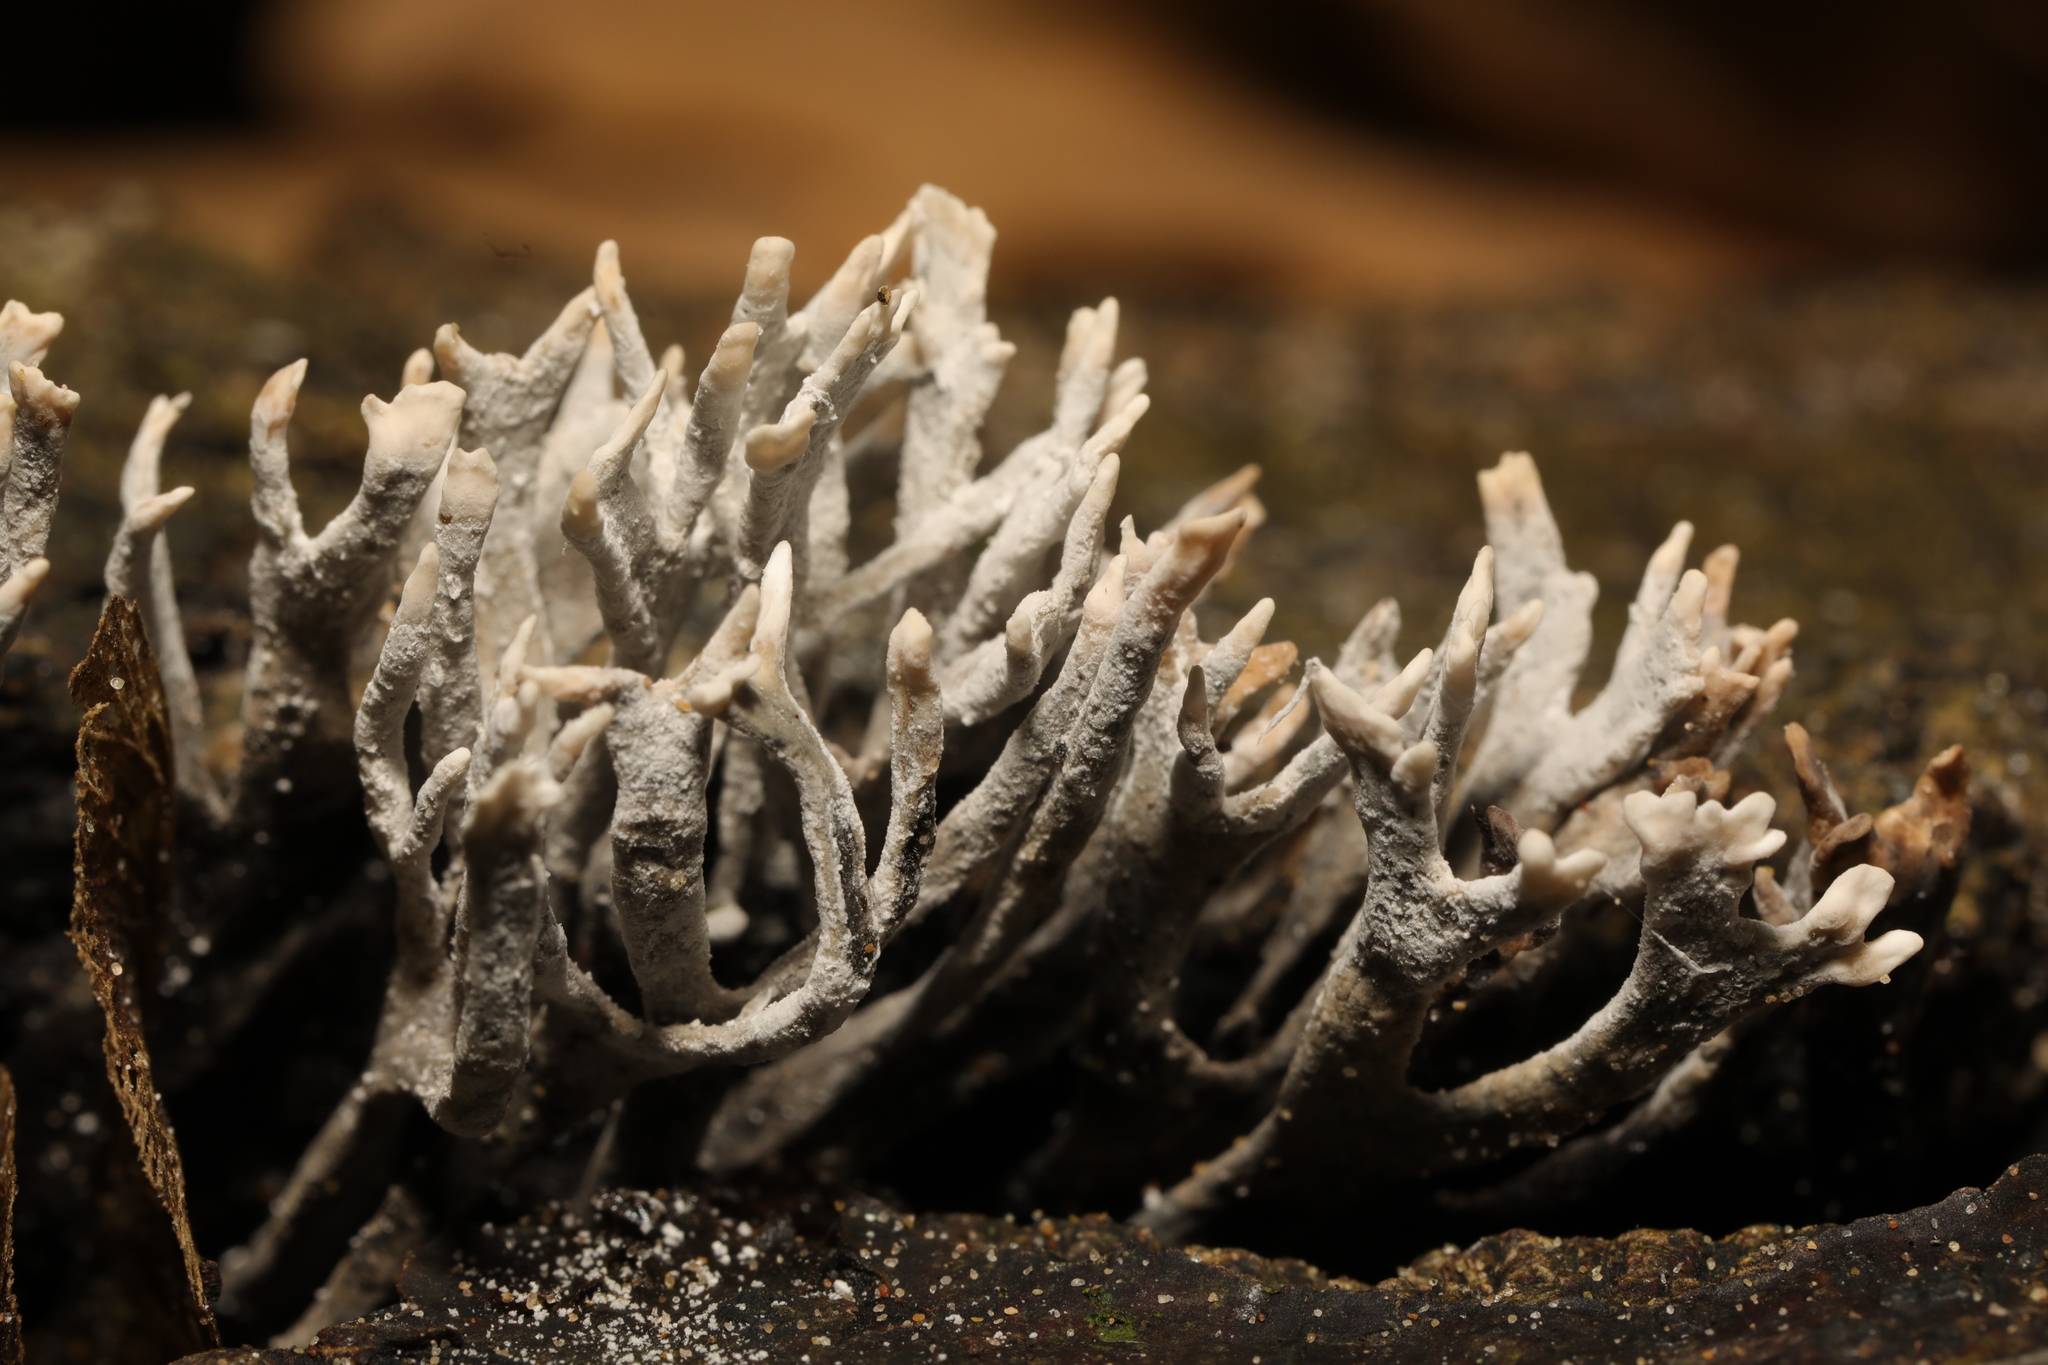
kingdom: Fungi
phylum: Ascomycota
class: Sordariomycetes
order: Xylariales
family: Xylariaceae
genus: Xylaria
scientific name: Xylaria hypoxylon
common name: Candle-snuff fungus
